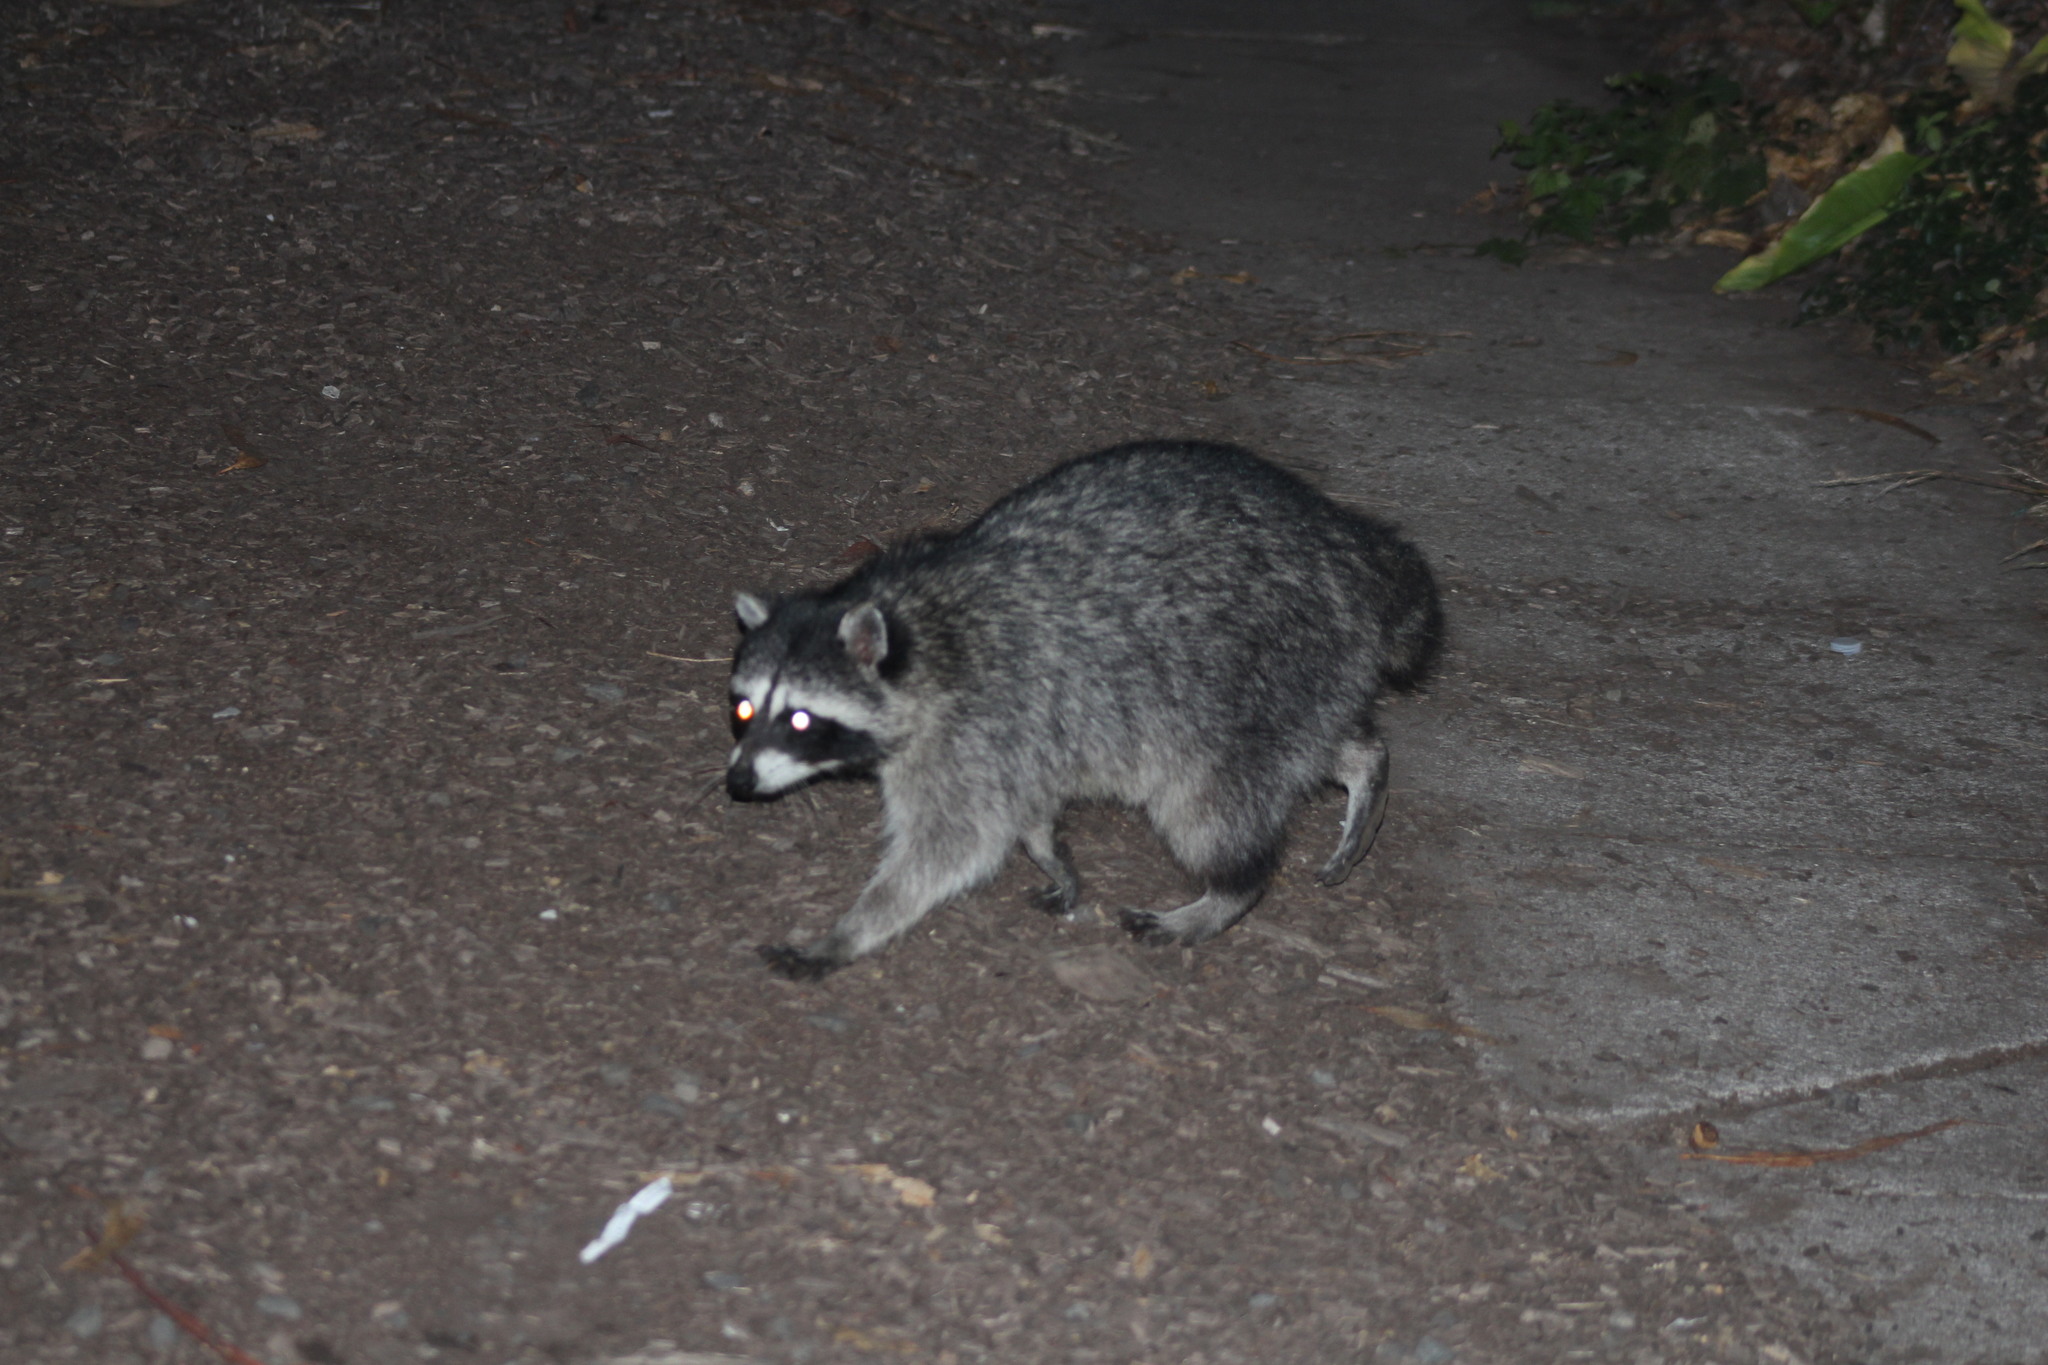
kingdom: Animalia
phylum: Chordata
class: Mammalia
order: Carnivora
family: Procyonidae
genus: Procyon
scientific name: Procyon lotor
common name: Raccoon
